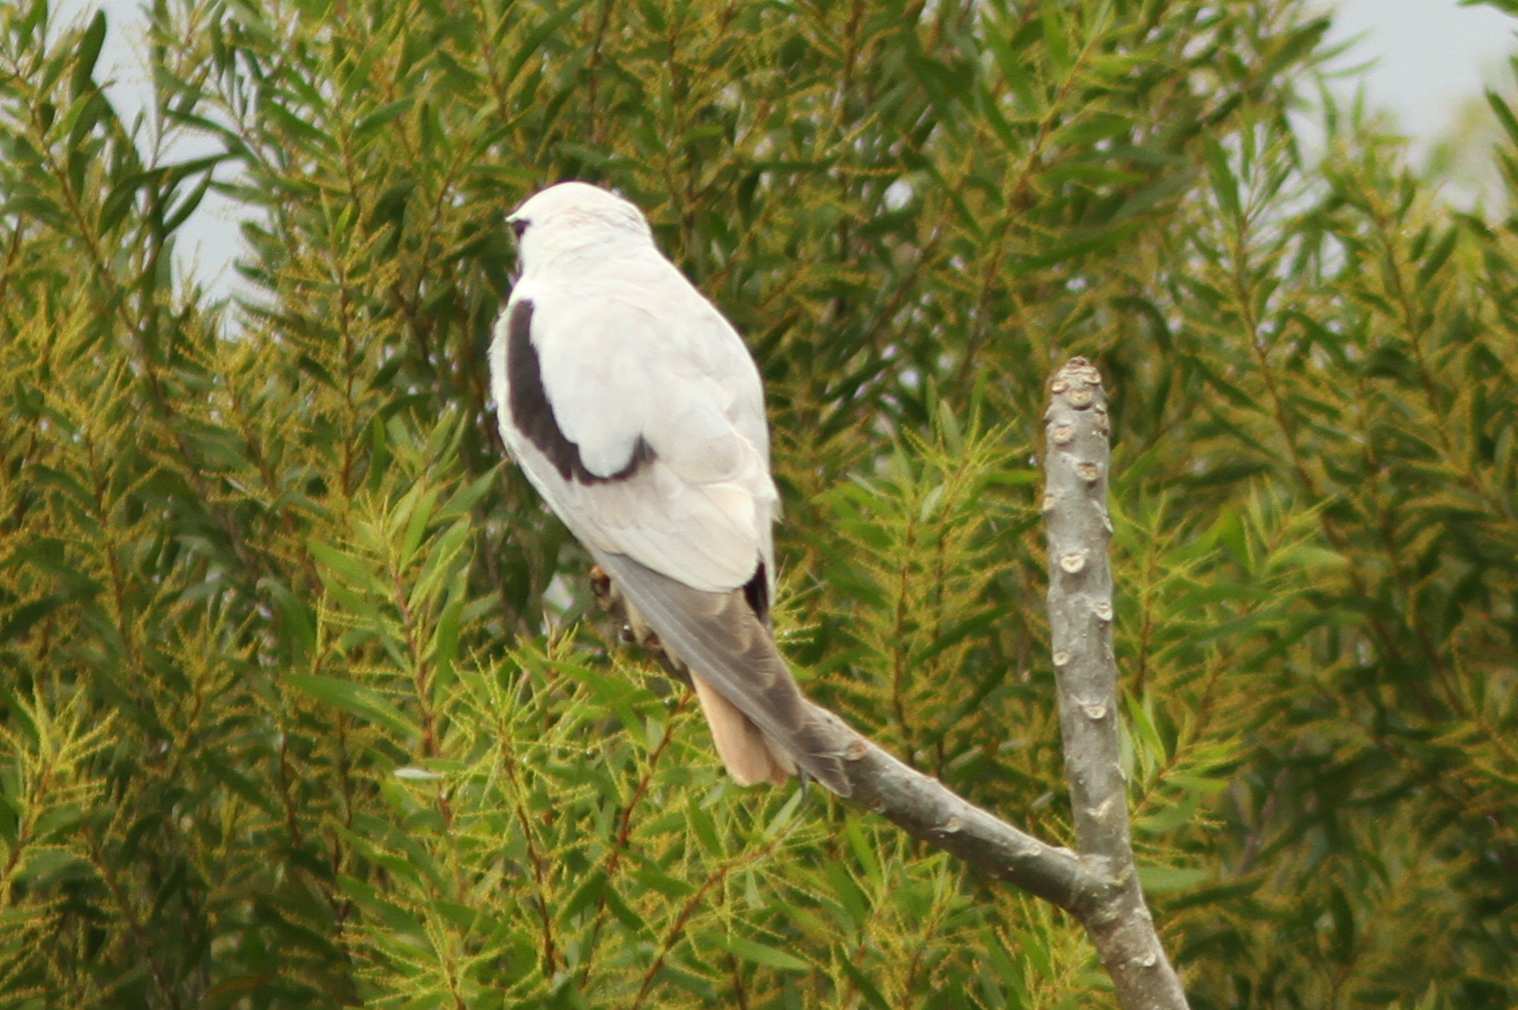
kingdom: Animalia
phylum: Chordata
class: Aves
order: Accipitriformes
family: Accipitridae
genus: Elanus
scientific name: Elanus axillaris
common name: Black-shouldered kite
